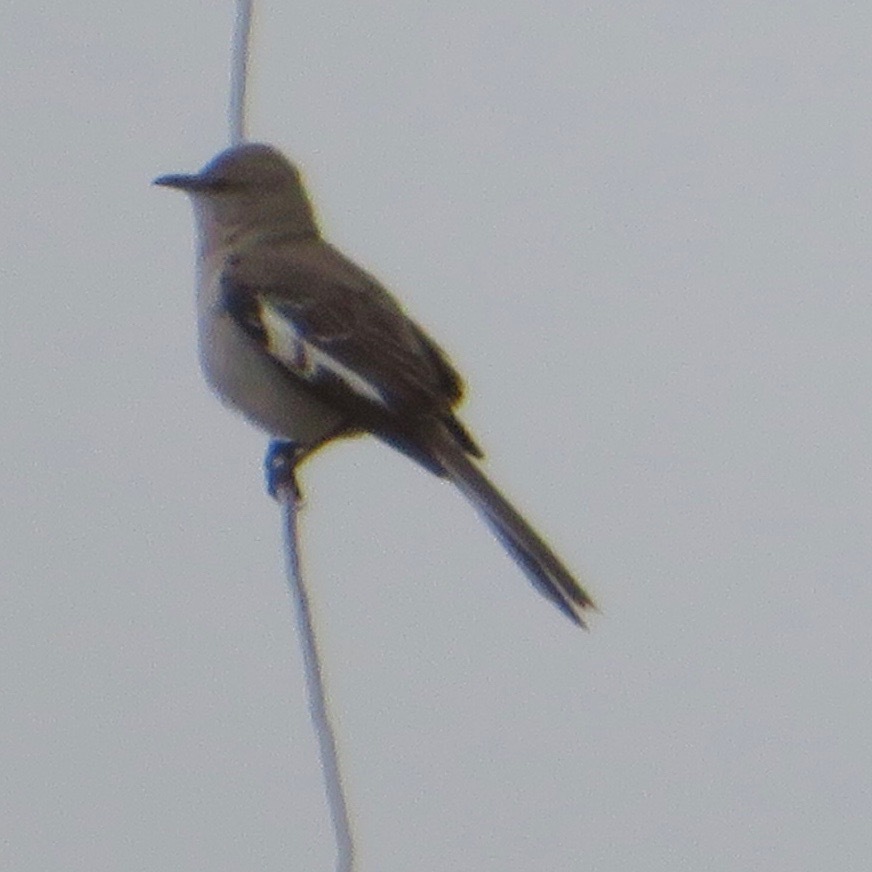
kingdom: Animalia
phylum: Chordata
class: Aves
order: Passeriformes
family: Mimidae
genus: Mimus
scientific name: Mimus polyglottos
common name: Northern mockingbird
